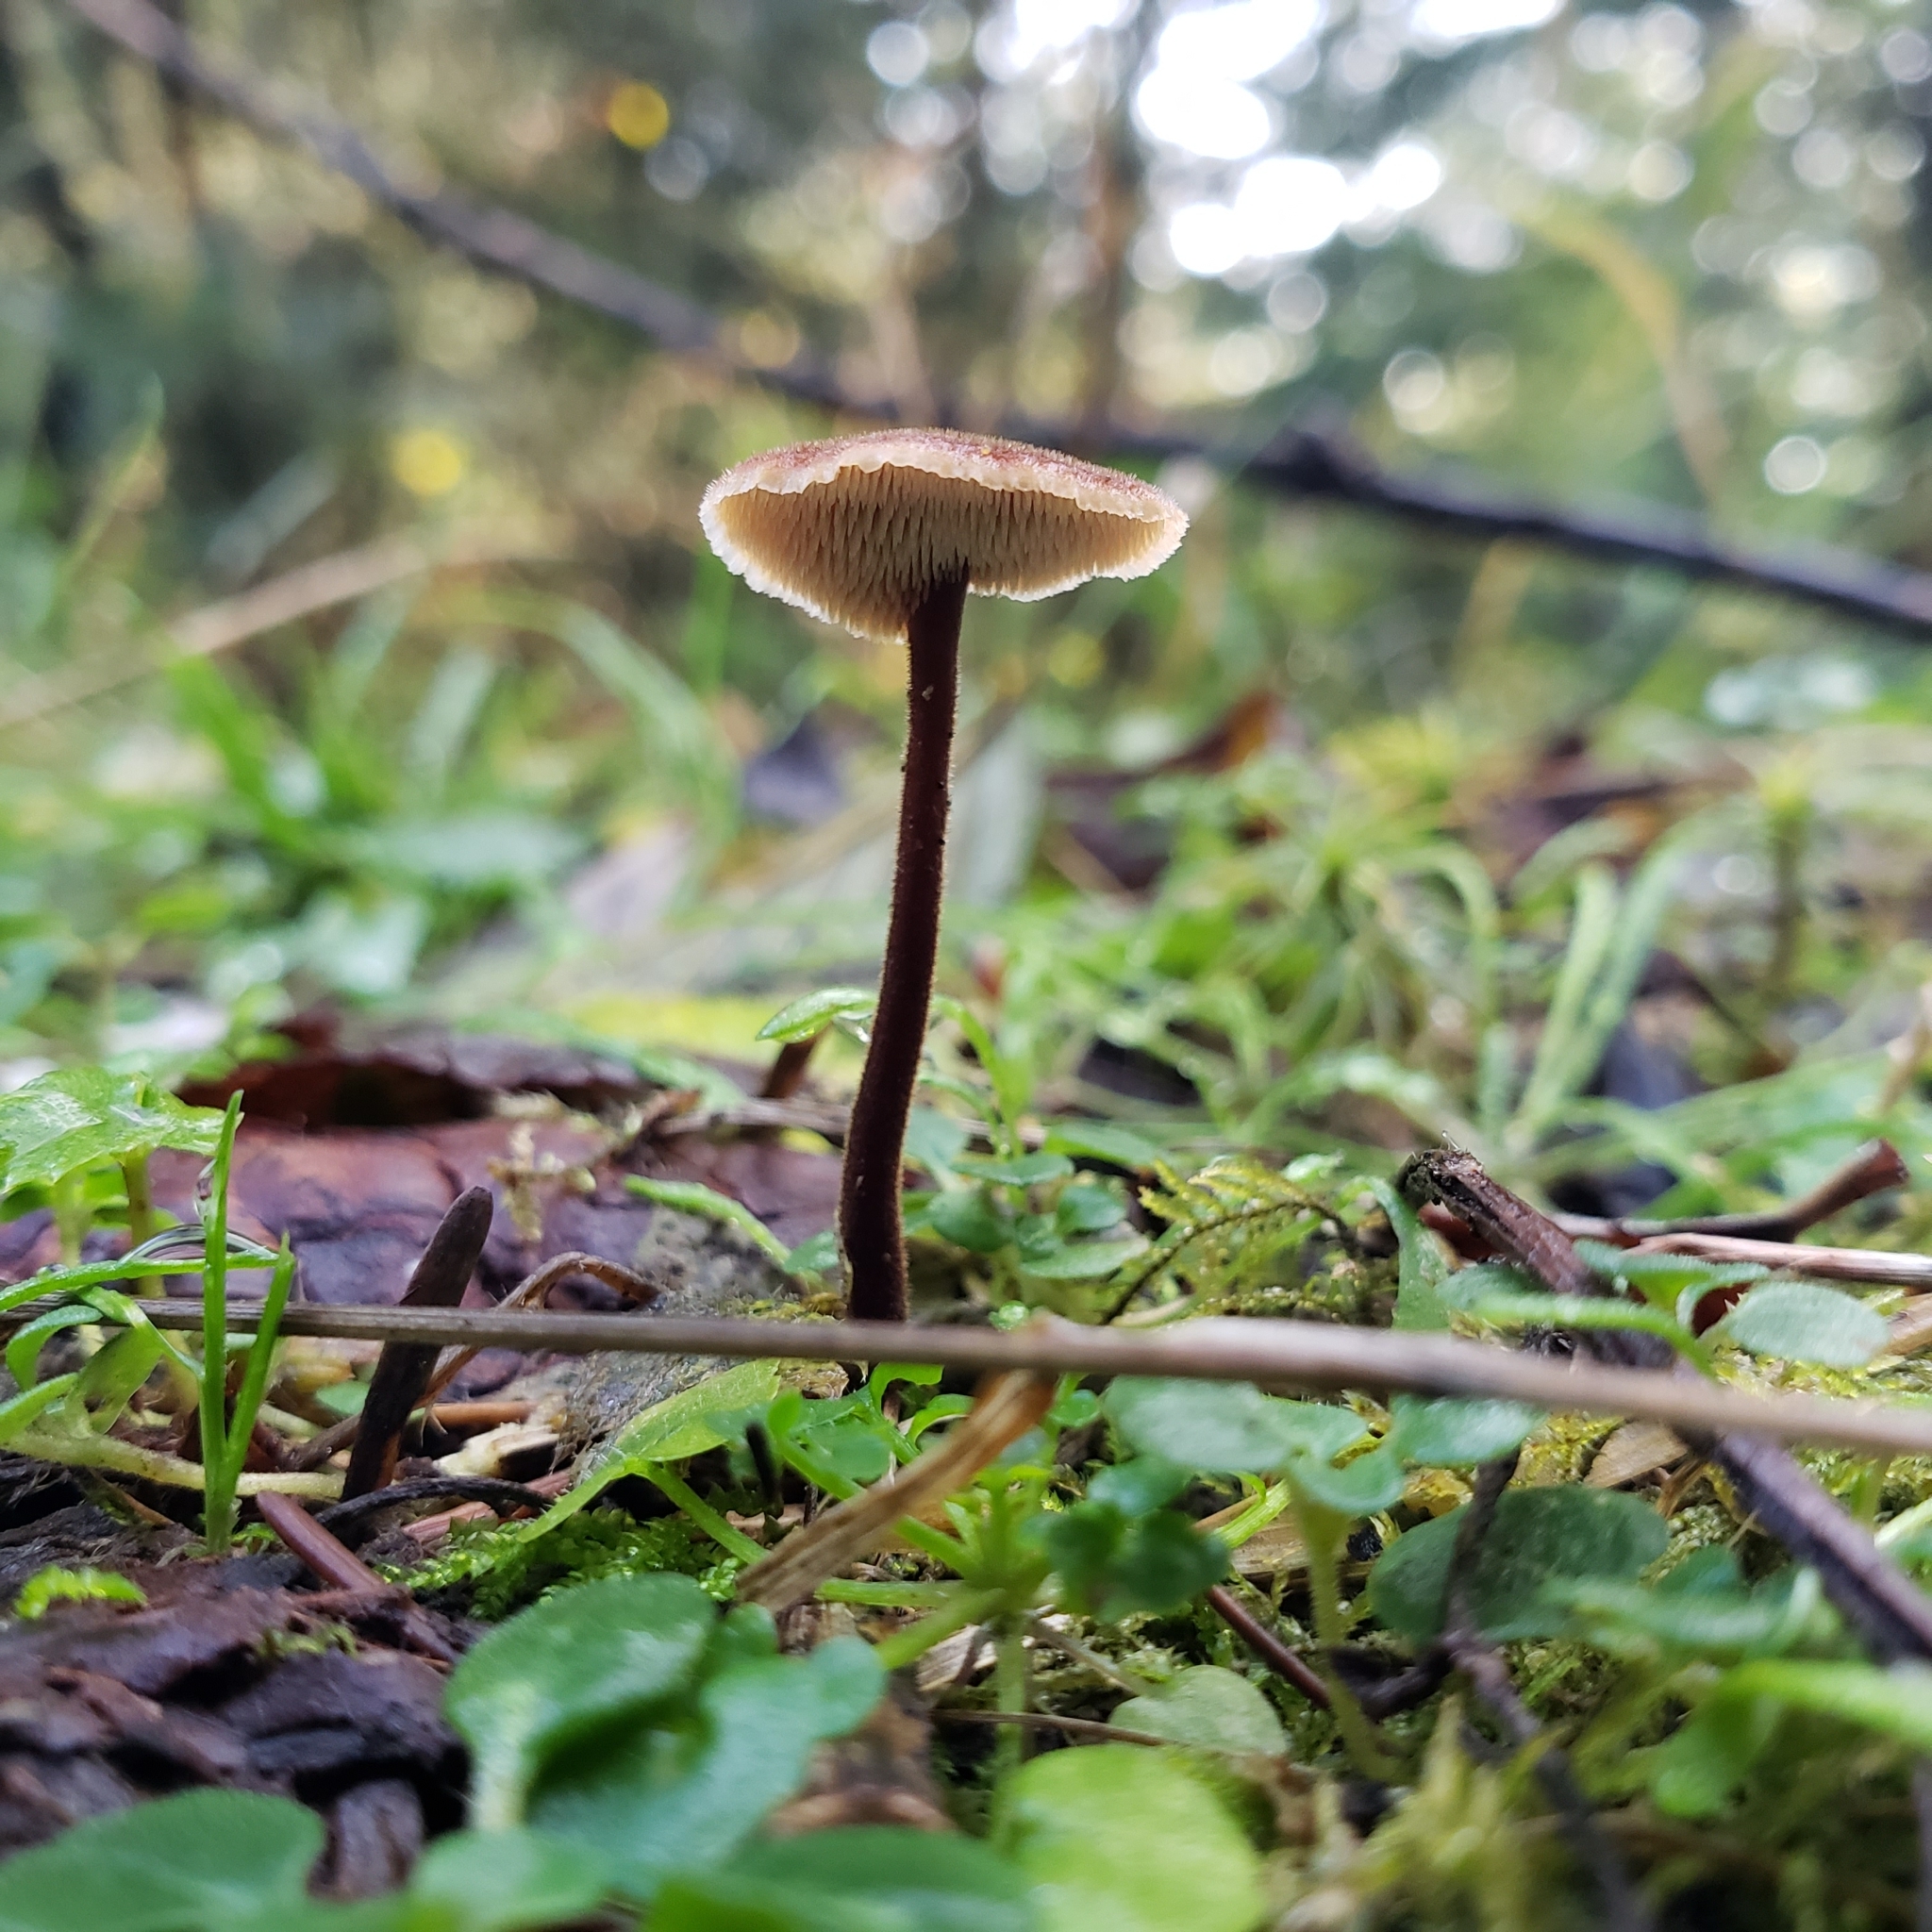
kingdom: Fungi
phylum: Basidiomycota
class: Agaricomycetes
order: Russulales
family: Auriscalpiaceae
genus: Auriscalpium
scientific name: Auriscalpium vulgare
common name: Earpick fungus
